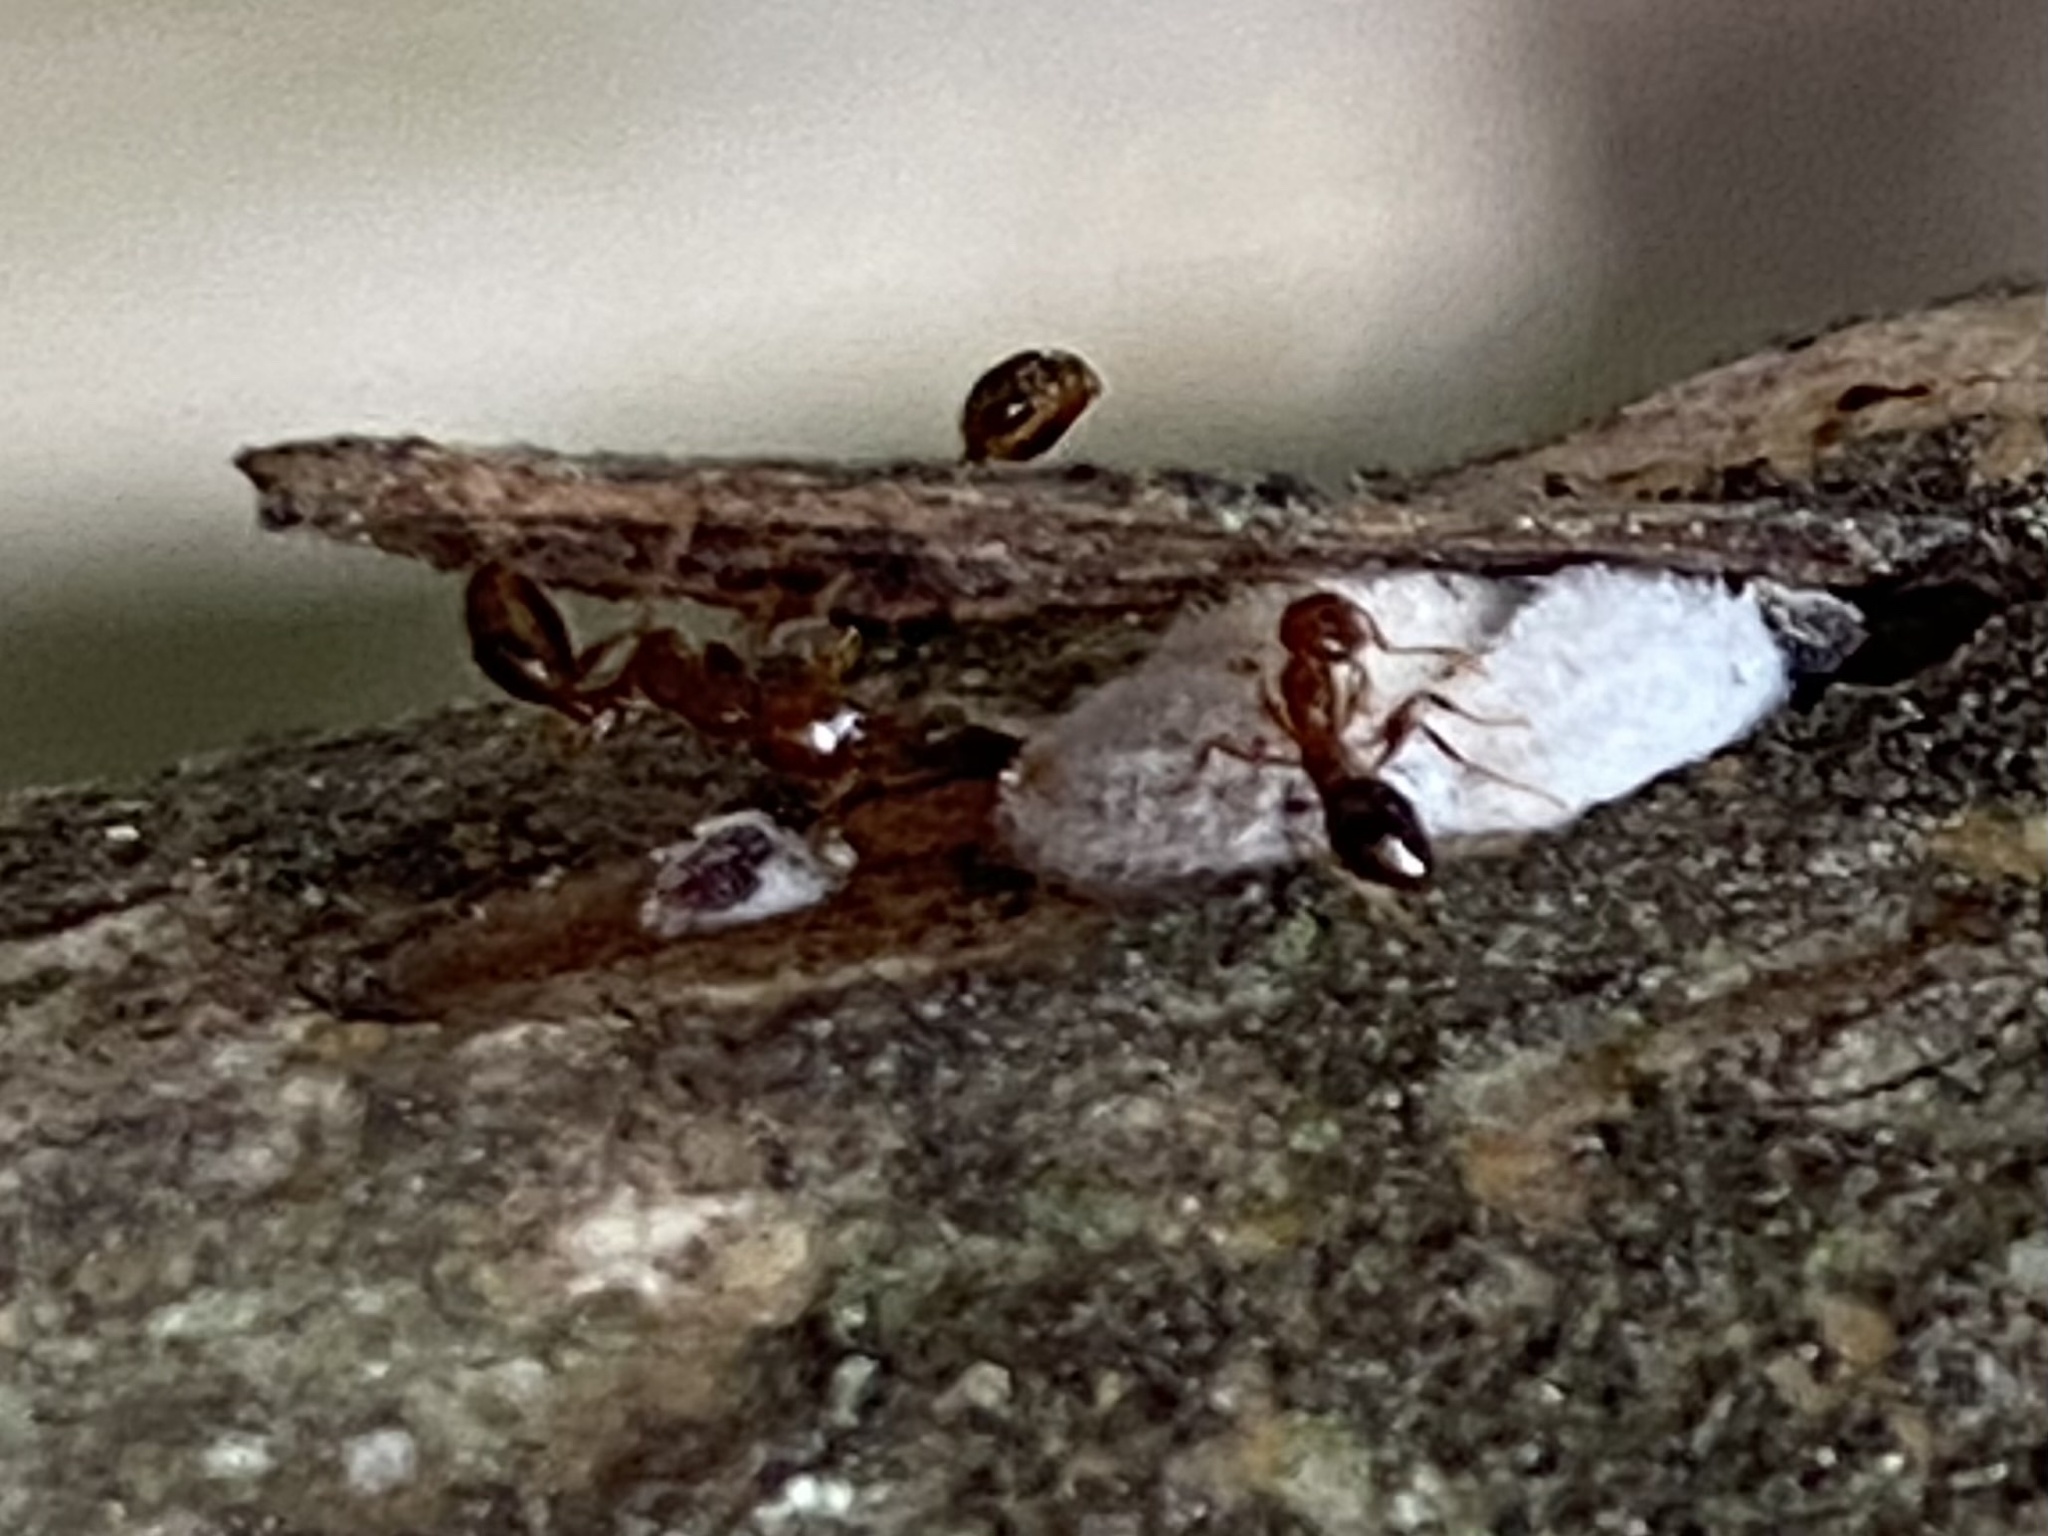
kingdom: Animalia
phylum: Arthropoda
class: Insecta
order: Hymenoptera
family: Formicidae
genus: Solenopsis
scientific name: Solenopsis invicta
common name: Red imported fire ant
